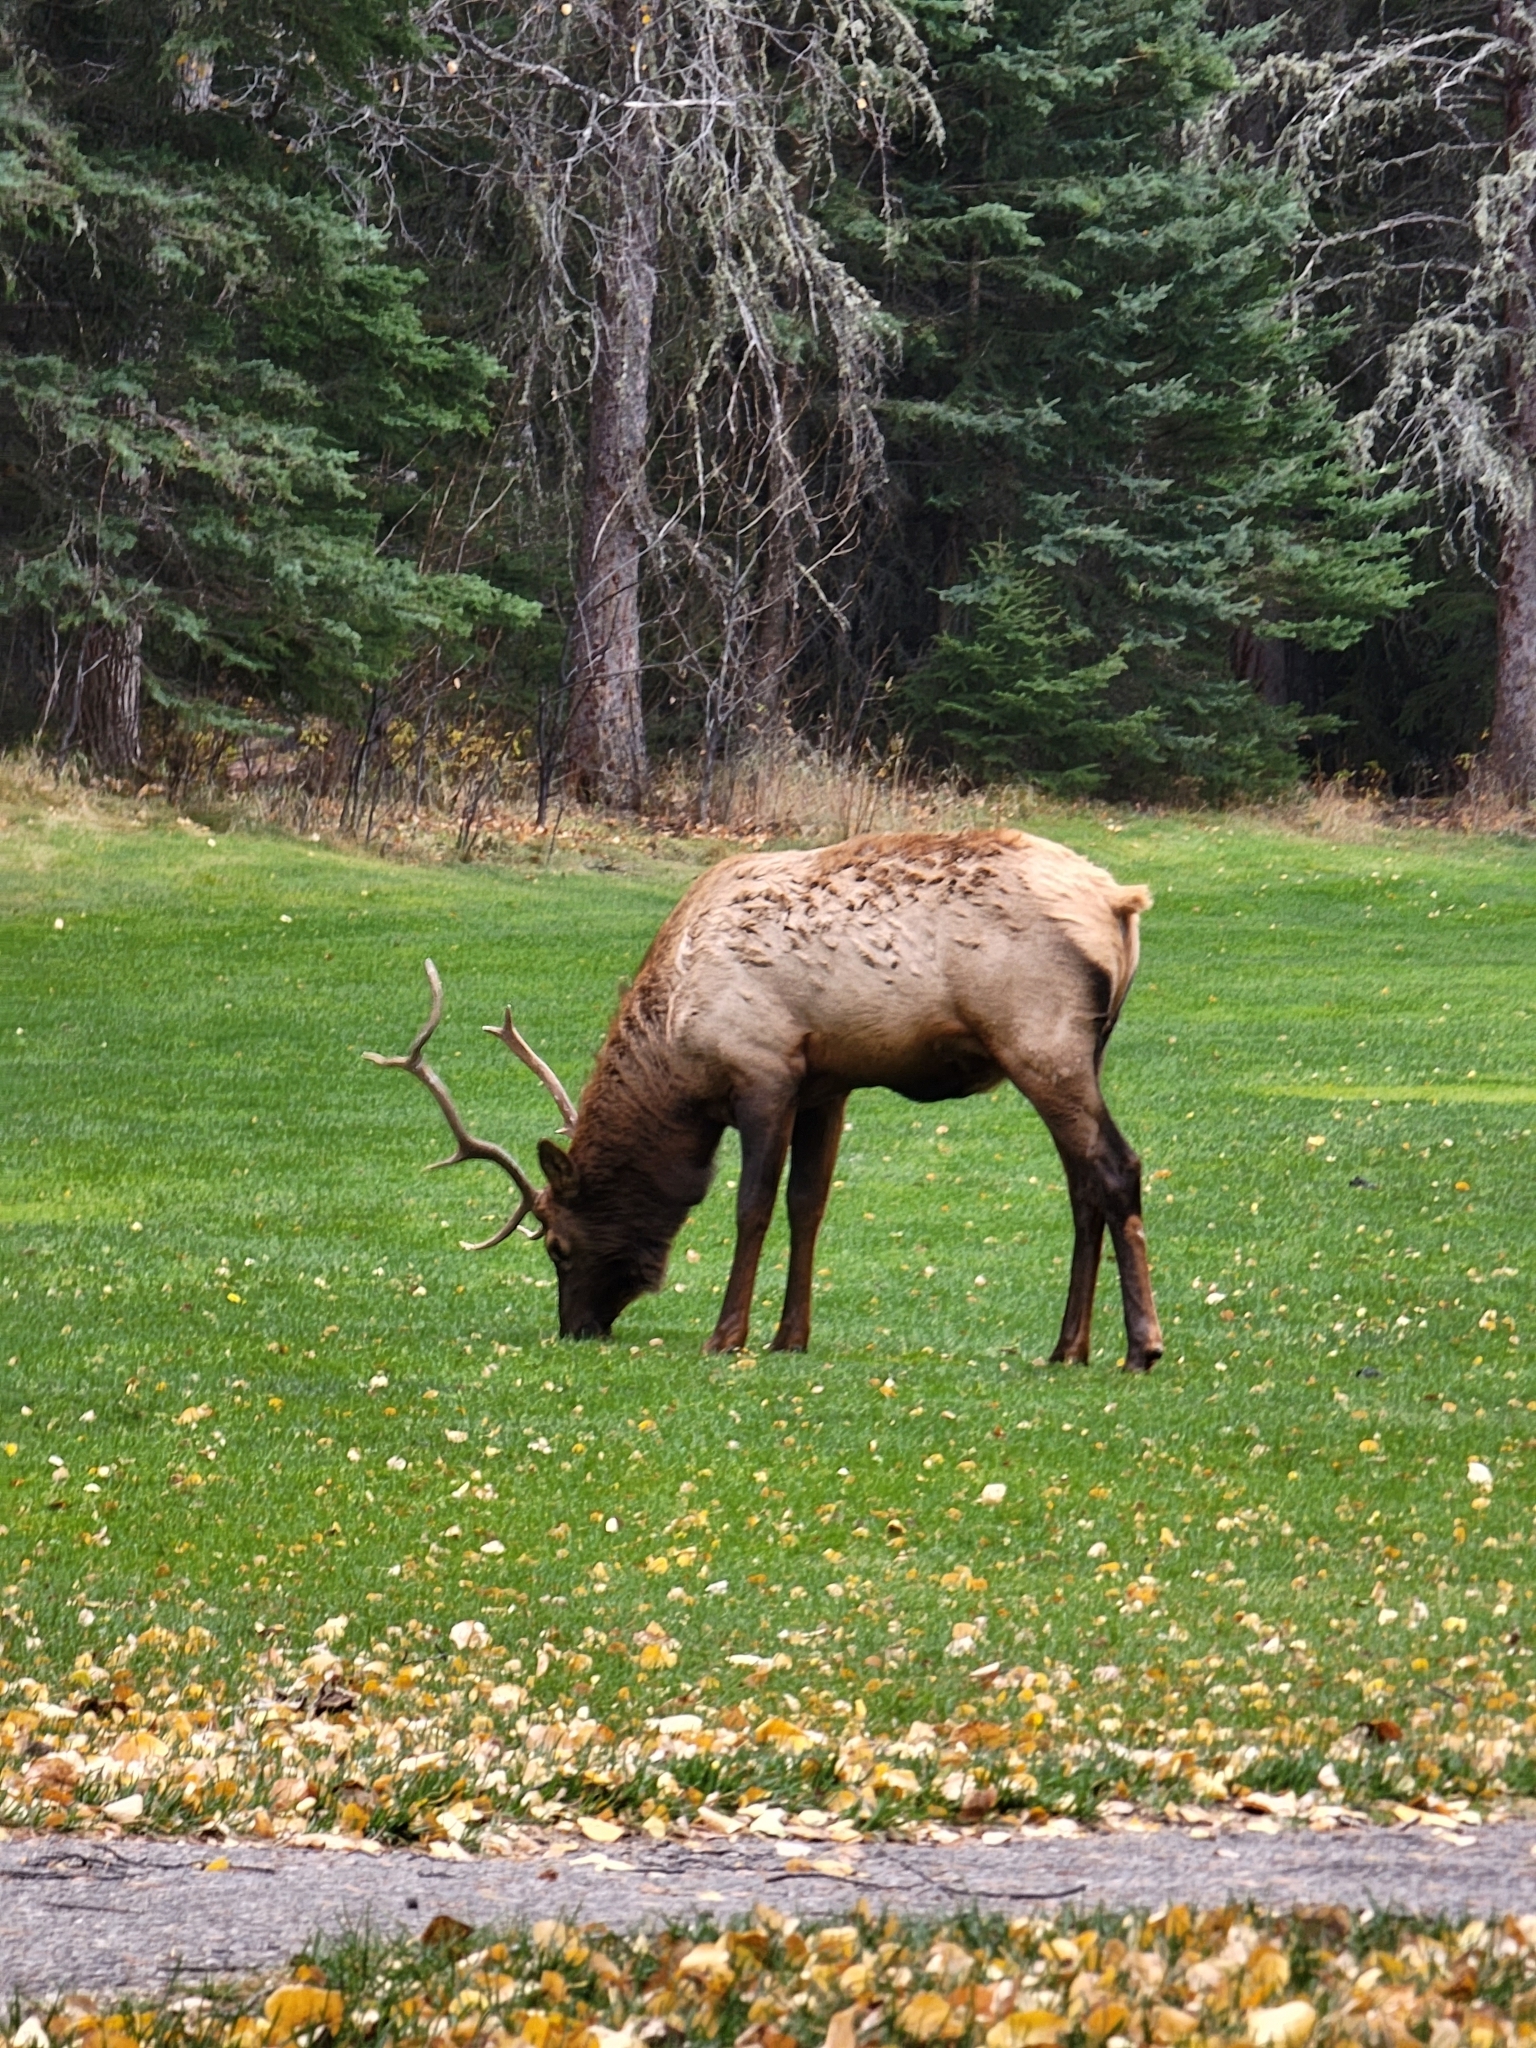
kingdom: Animalia
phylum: Chordata
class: Mammalia
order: Artiodactyla
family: Cervidae
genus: Cervus
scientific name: Cervus elaphus
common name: Red deer
